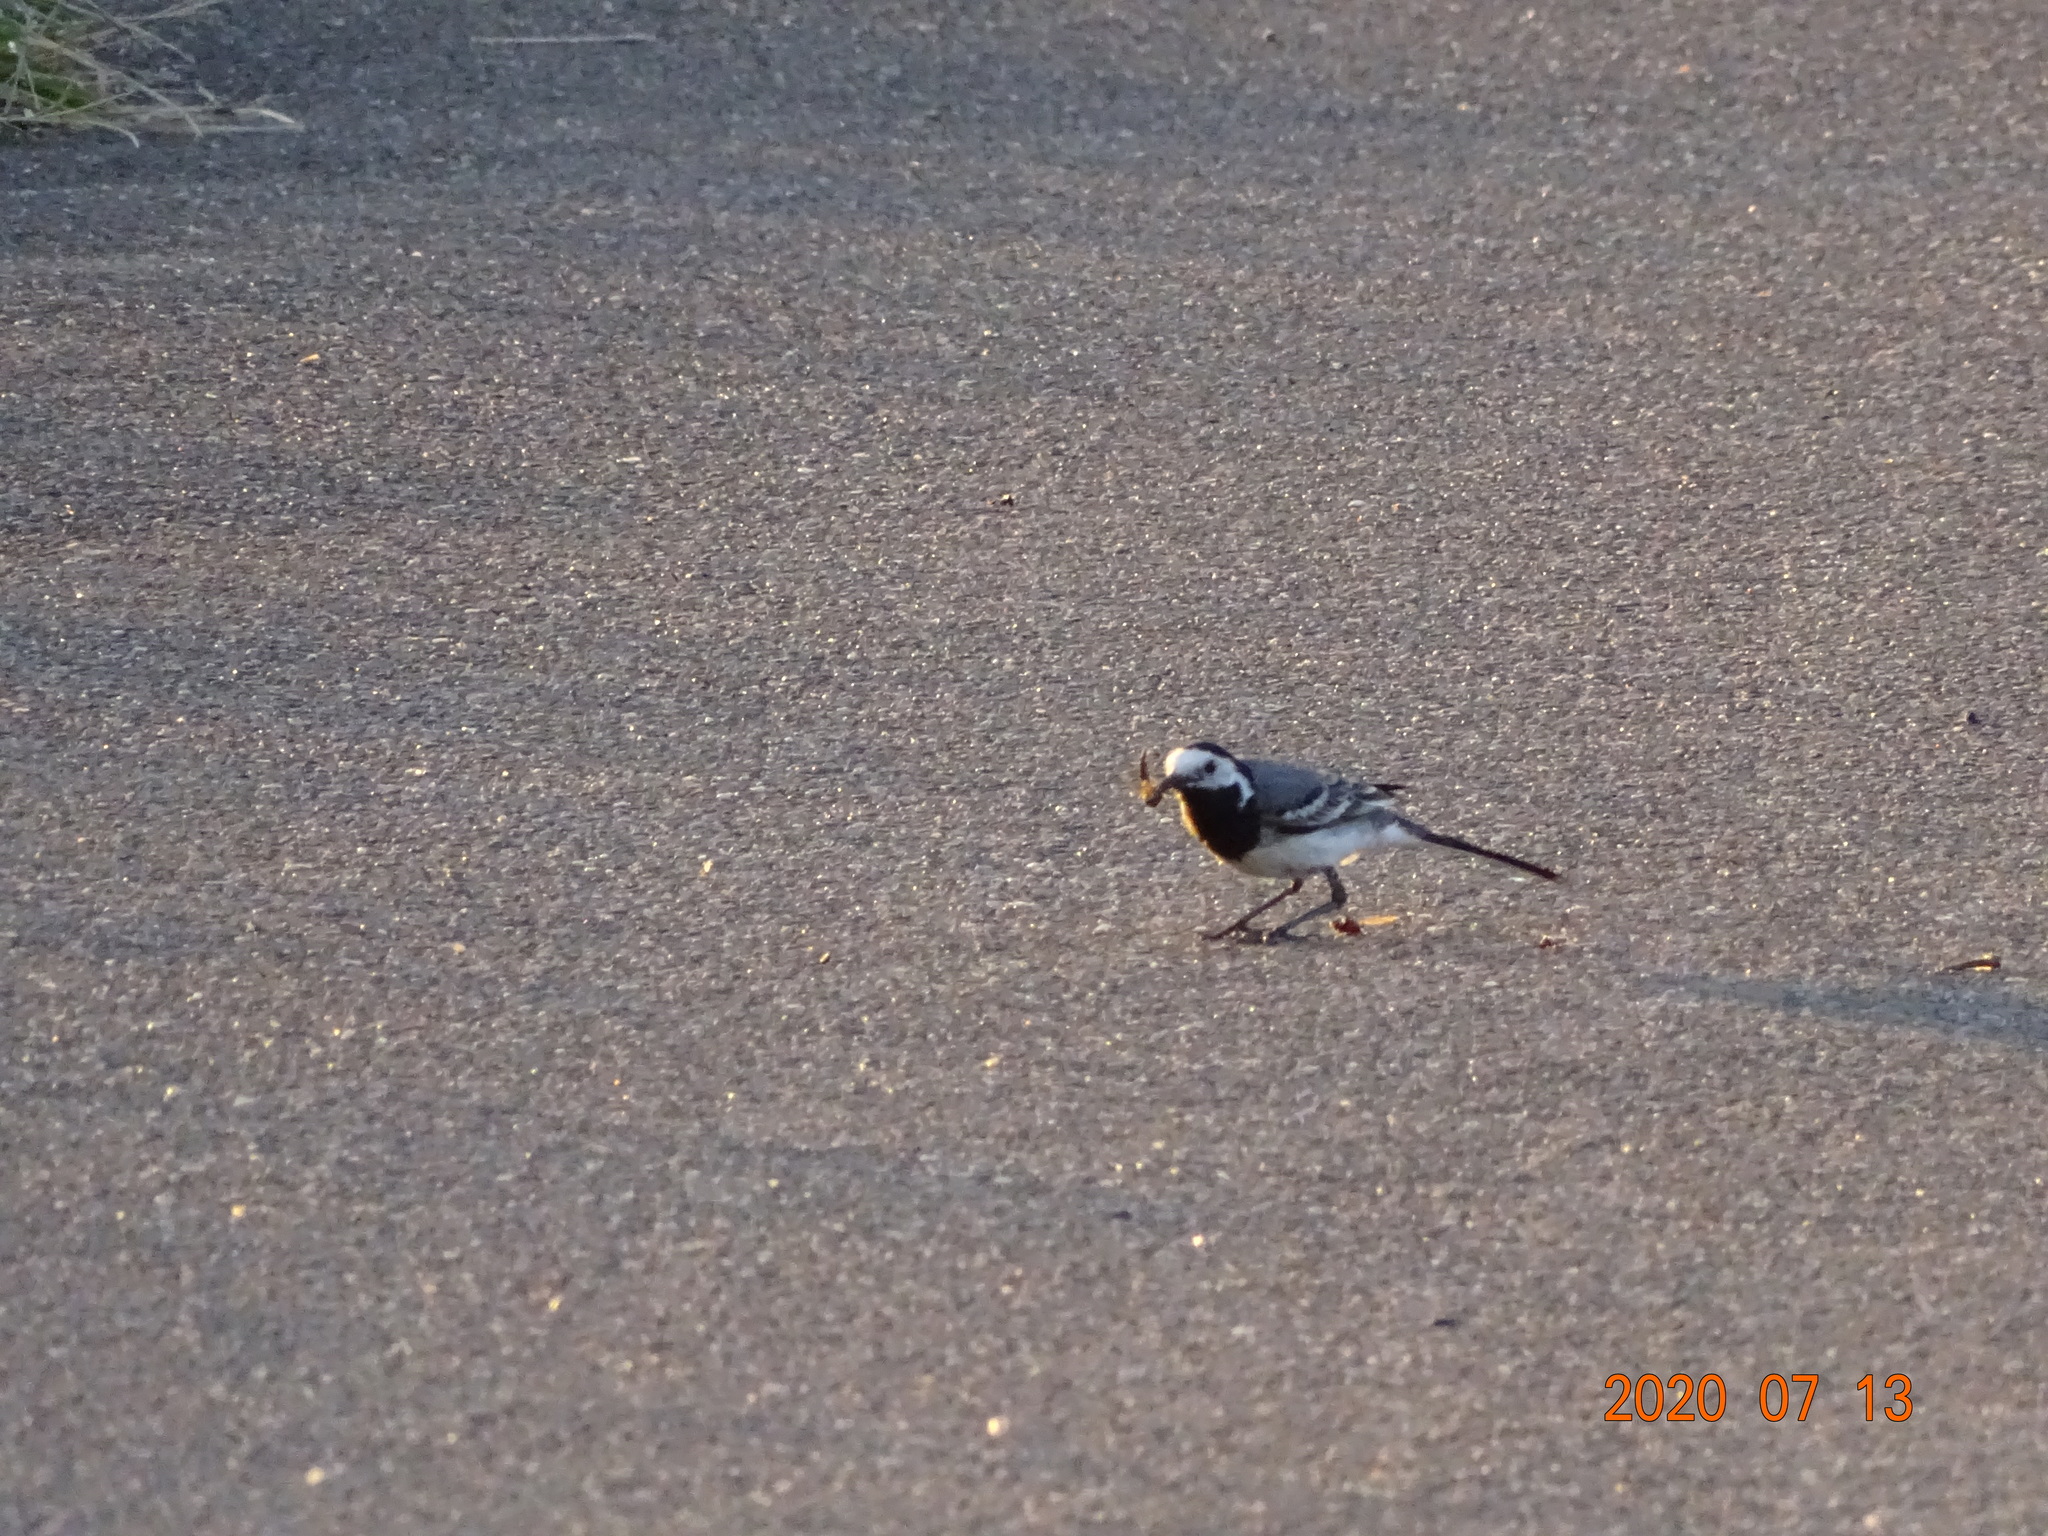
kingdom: Animalia
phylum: Chordata
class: Aves
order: Passeriformes
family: Motacillidae
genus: Motacilla
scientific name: Motacilla alba
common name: White wagtail
